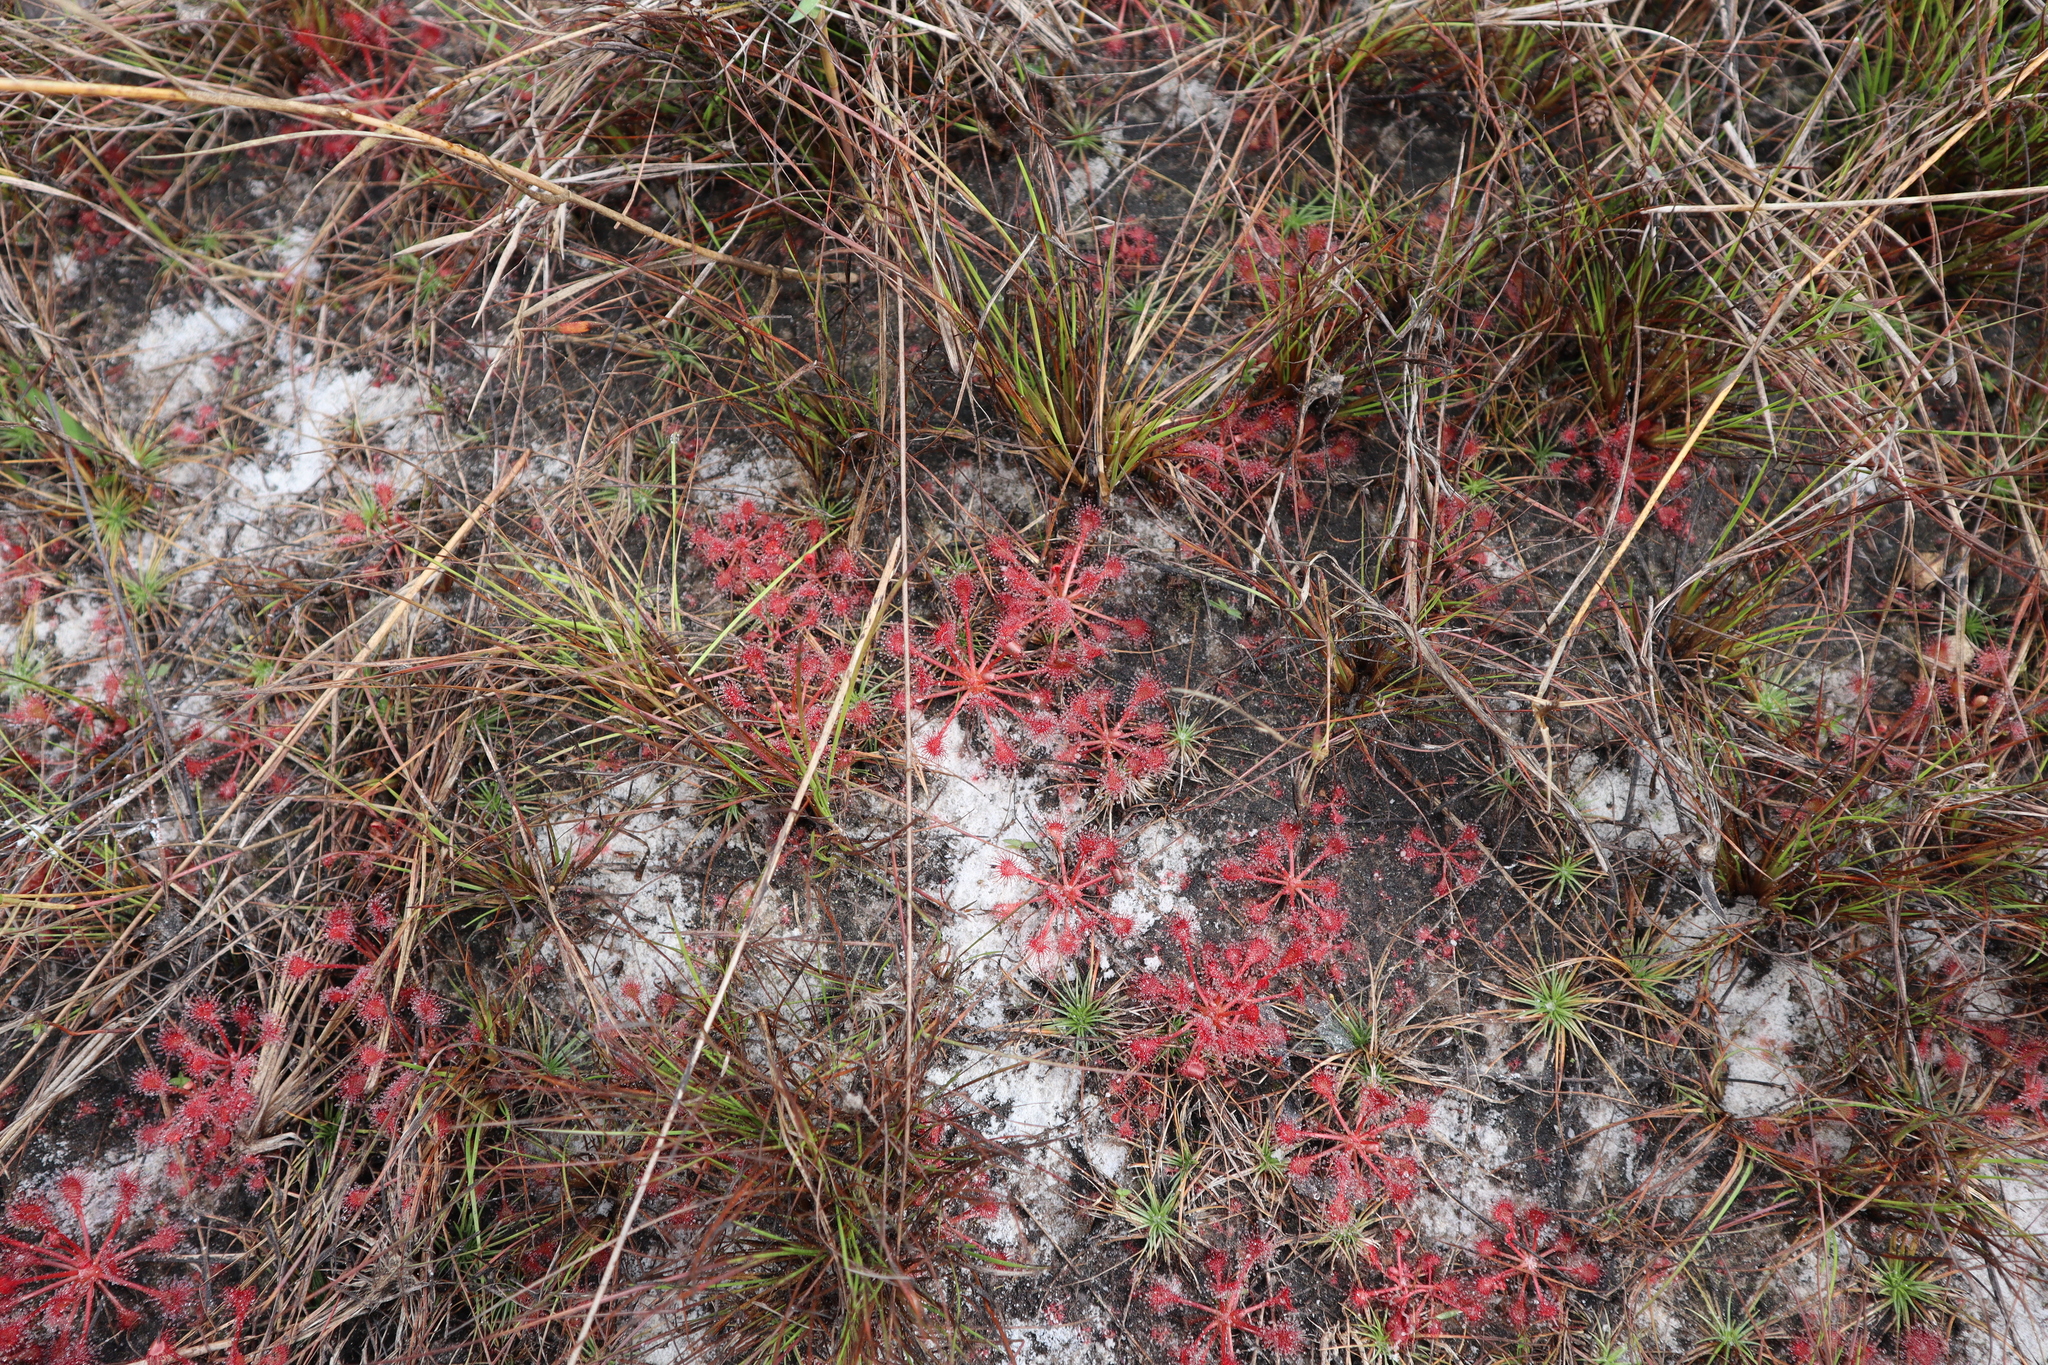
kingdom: Plantae
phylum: Tracheophyta
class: Magnoliopsida
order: Caryophyllales
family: Droseraceae
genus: Drosera
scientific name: Drosera capillaris
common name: Pink sundew
